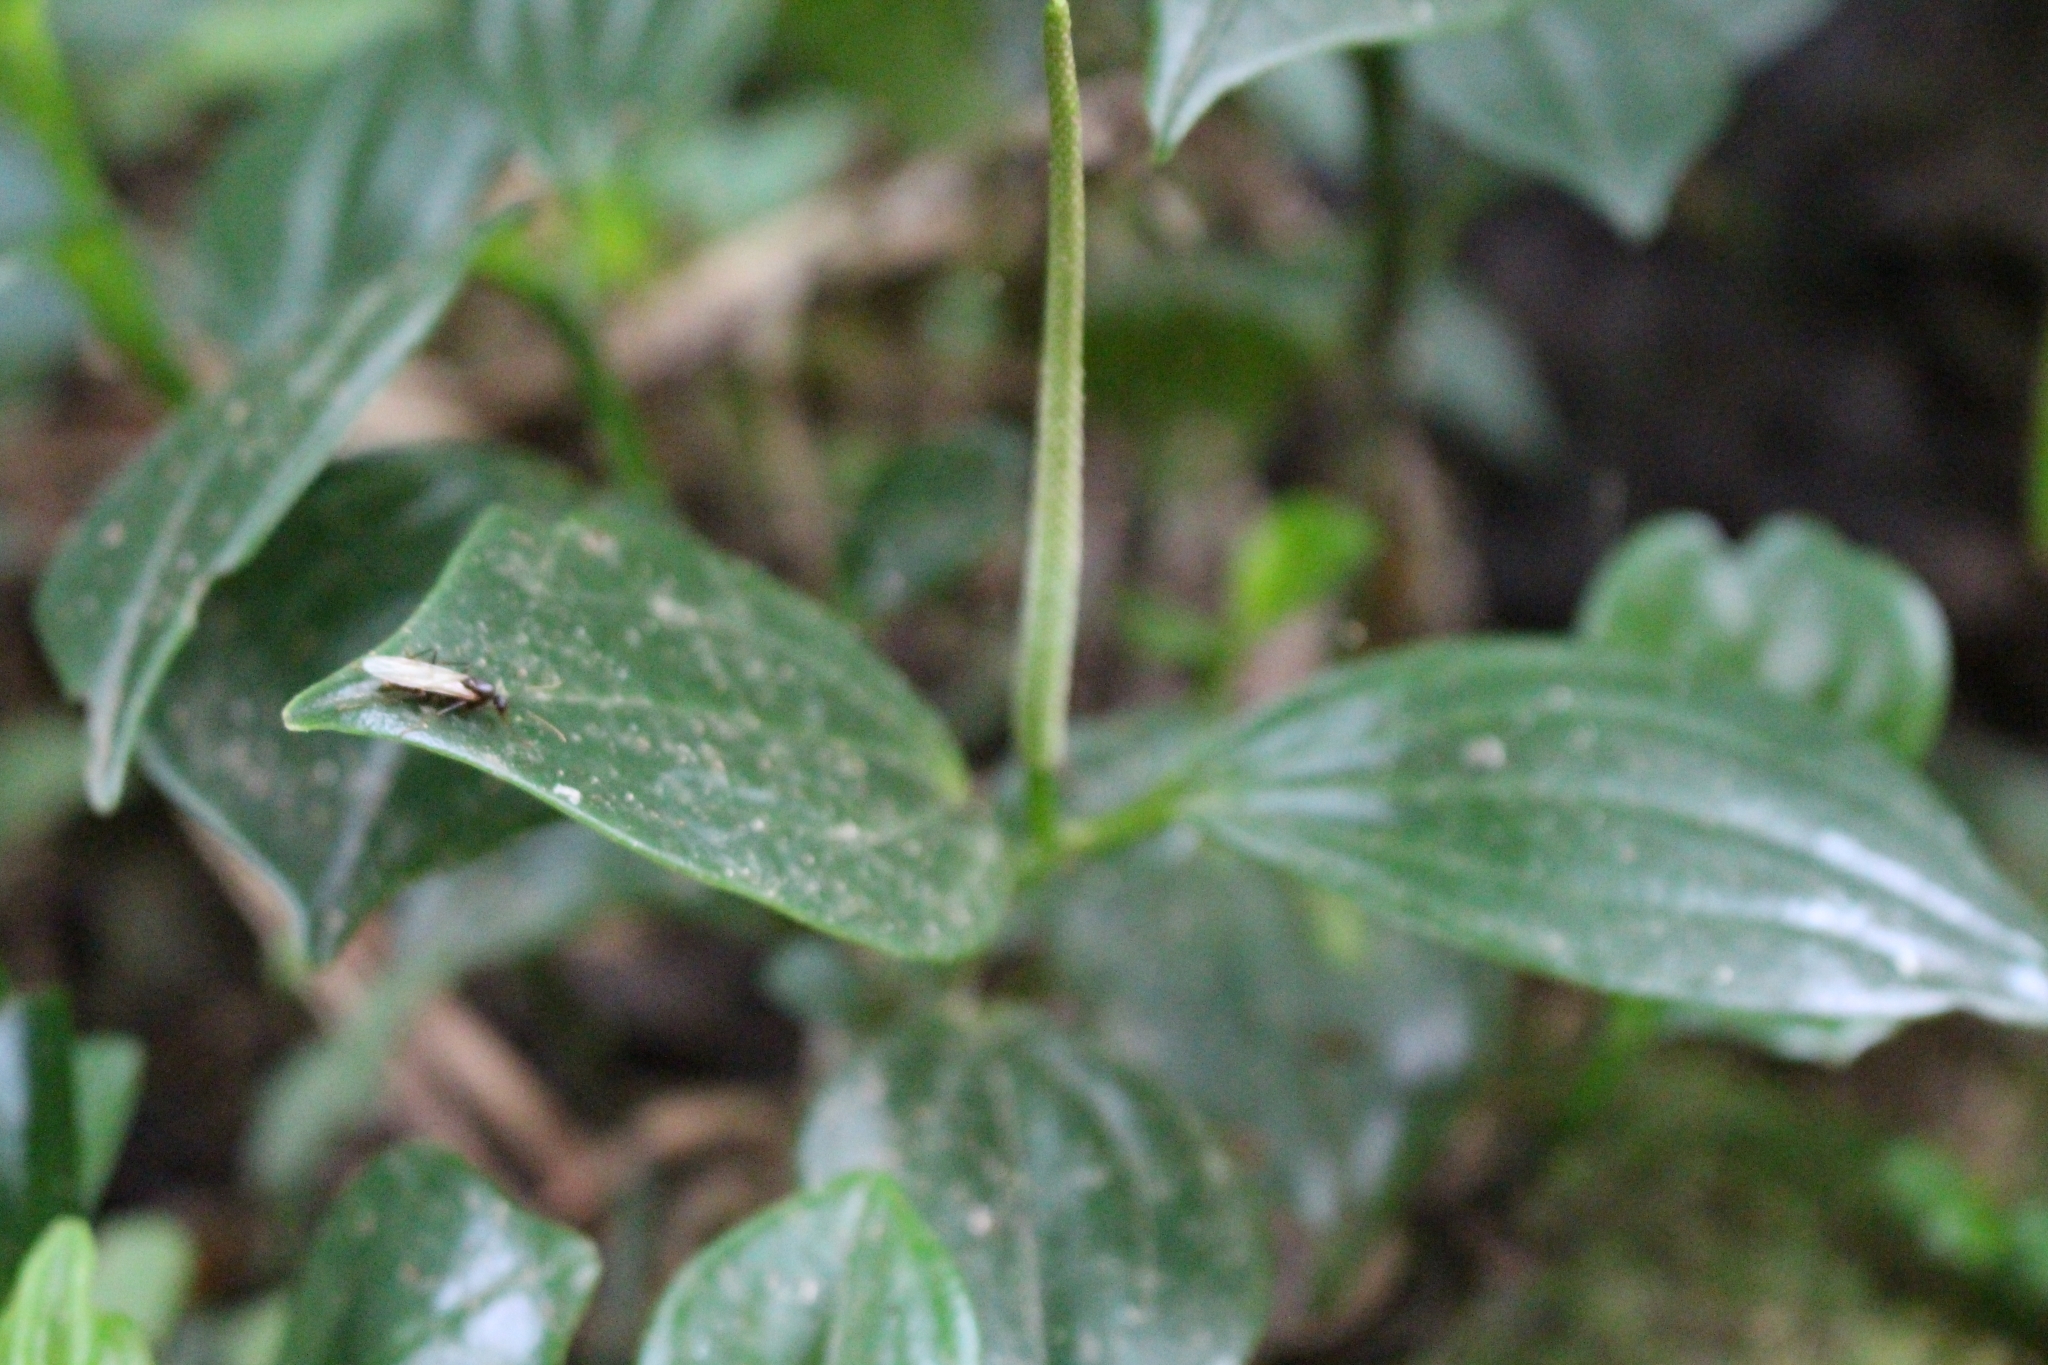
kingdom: Plantae
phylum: Tracheophyta
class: Magnoliopsida
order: Piperales
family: Piperaceae
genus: Peperomia
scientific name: Peperomia san-joseana
